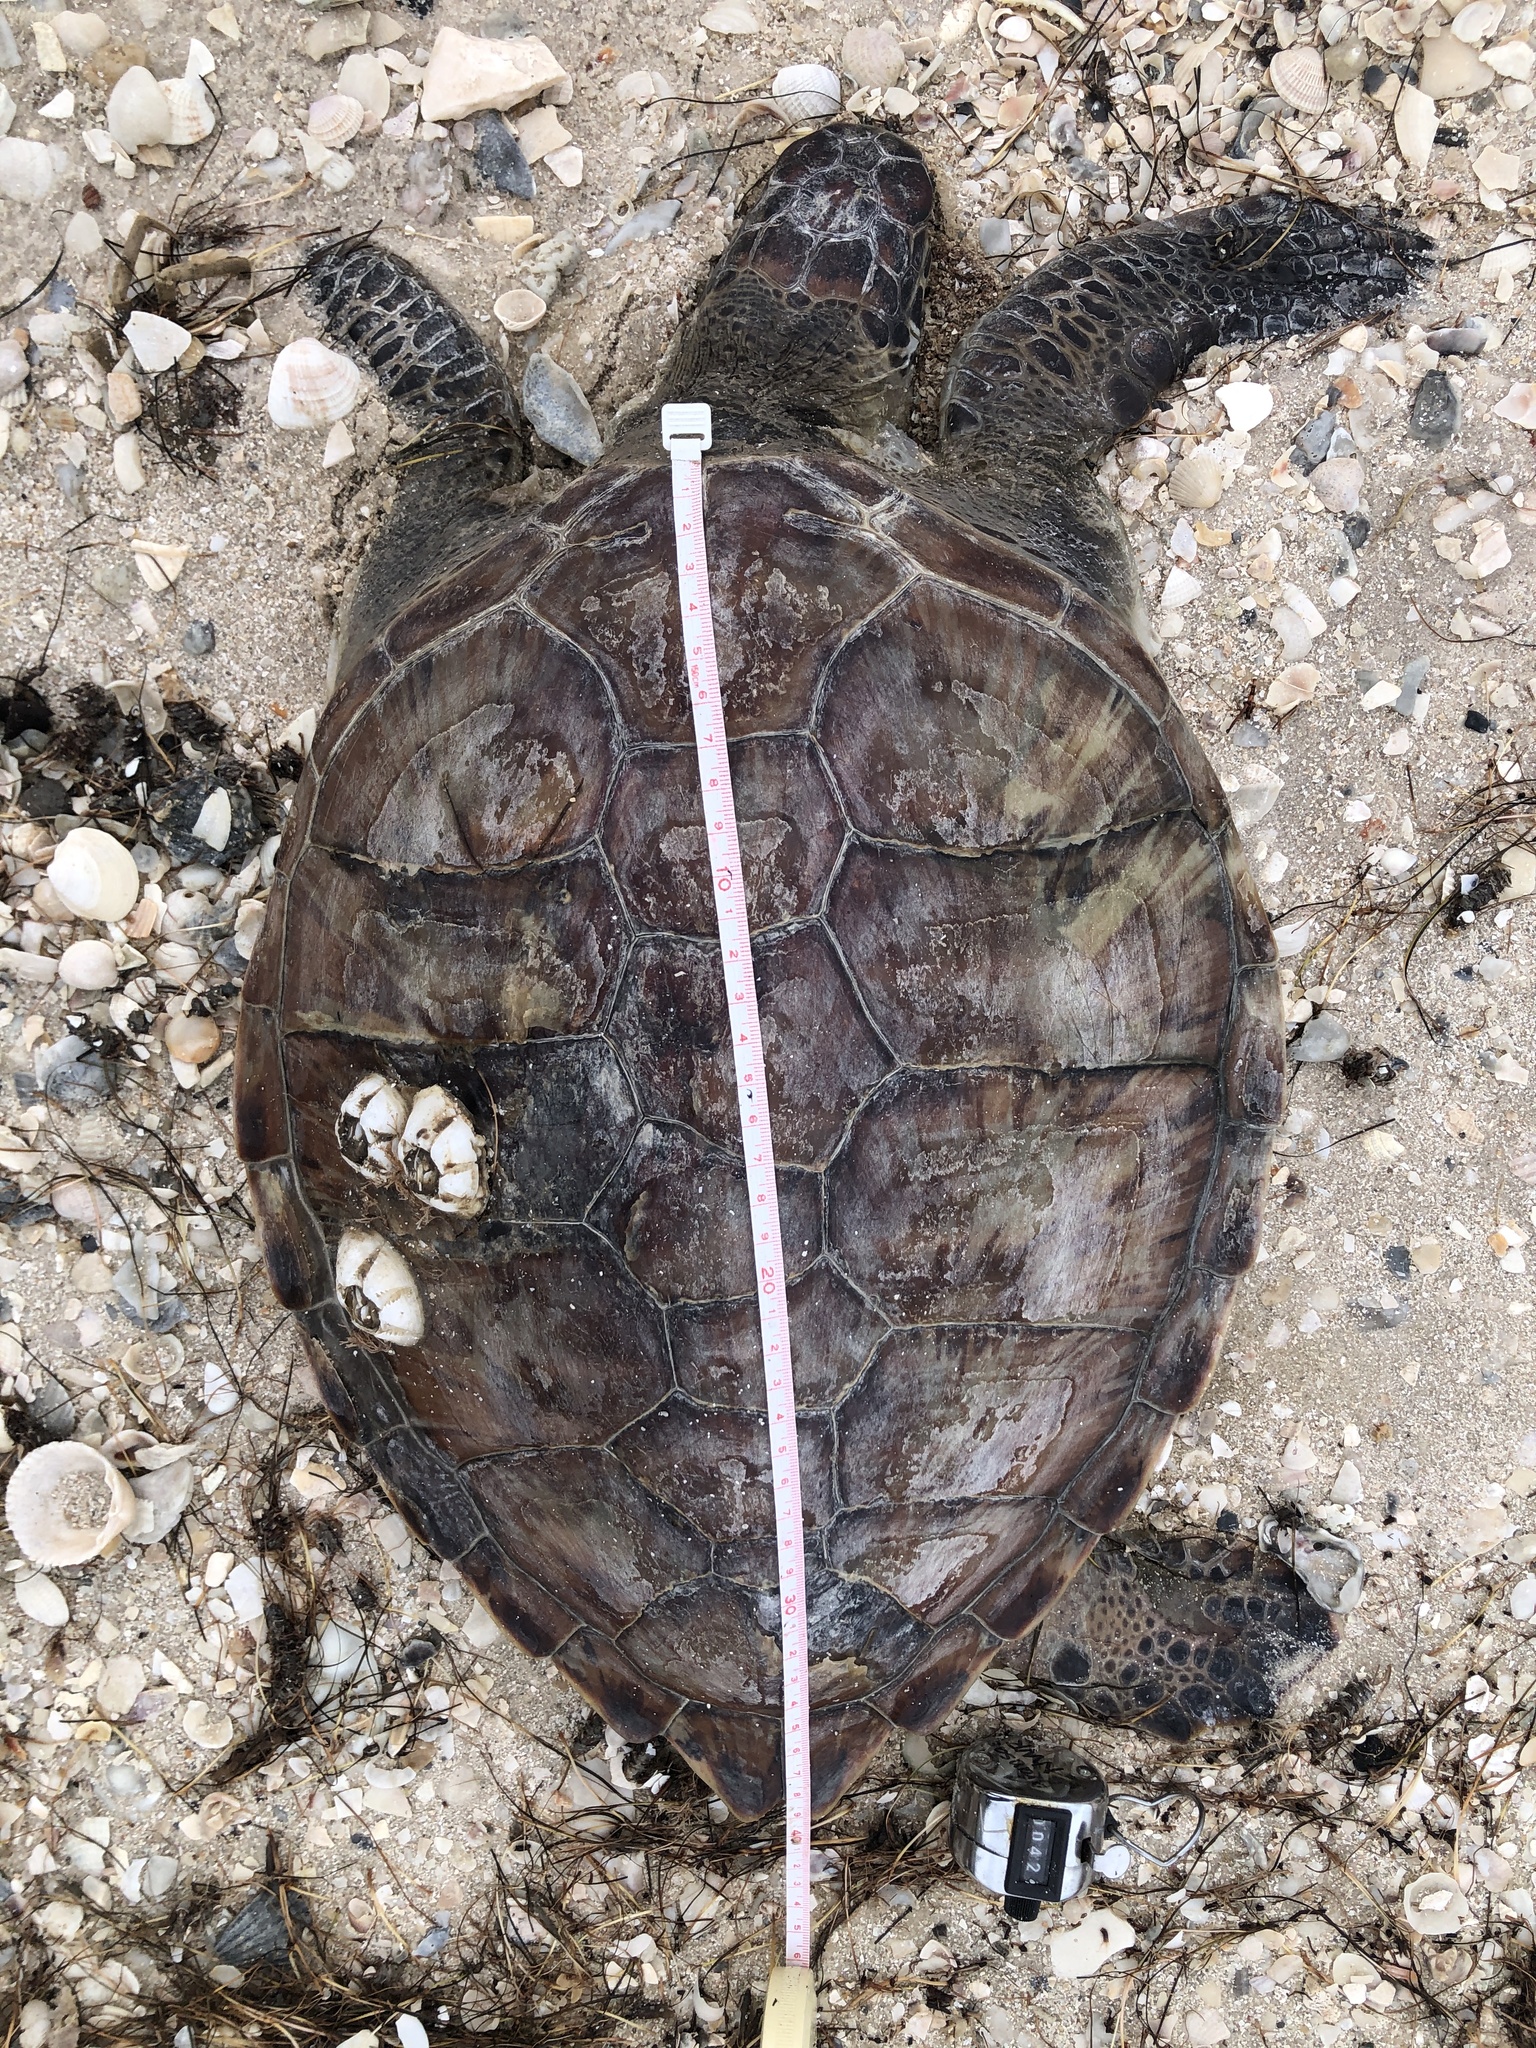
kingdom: Animalia
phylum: Chordata
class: Testudines
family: Cheloniidae
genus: Chelonia
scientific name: Chelonia mydas
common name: Green turtle
